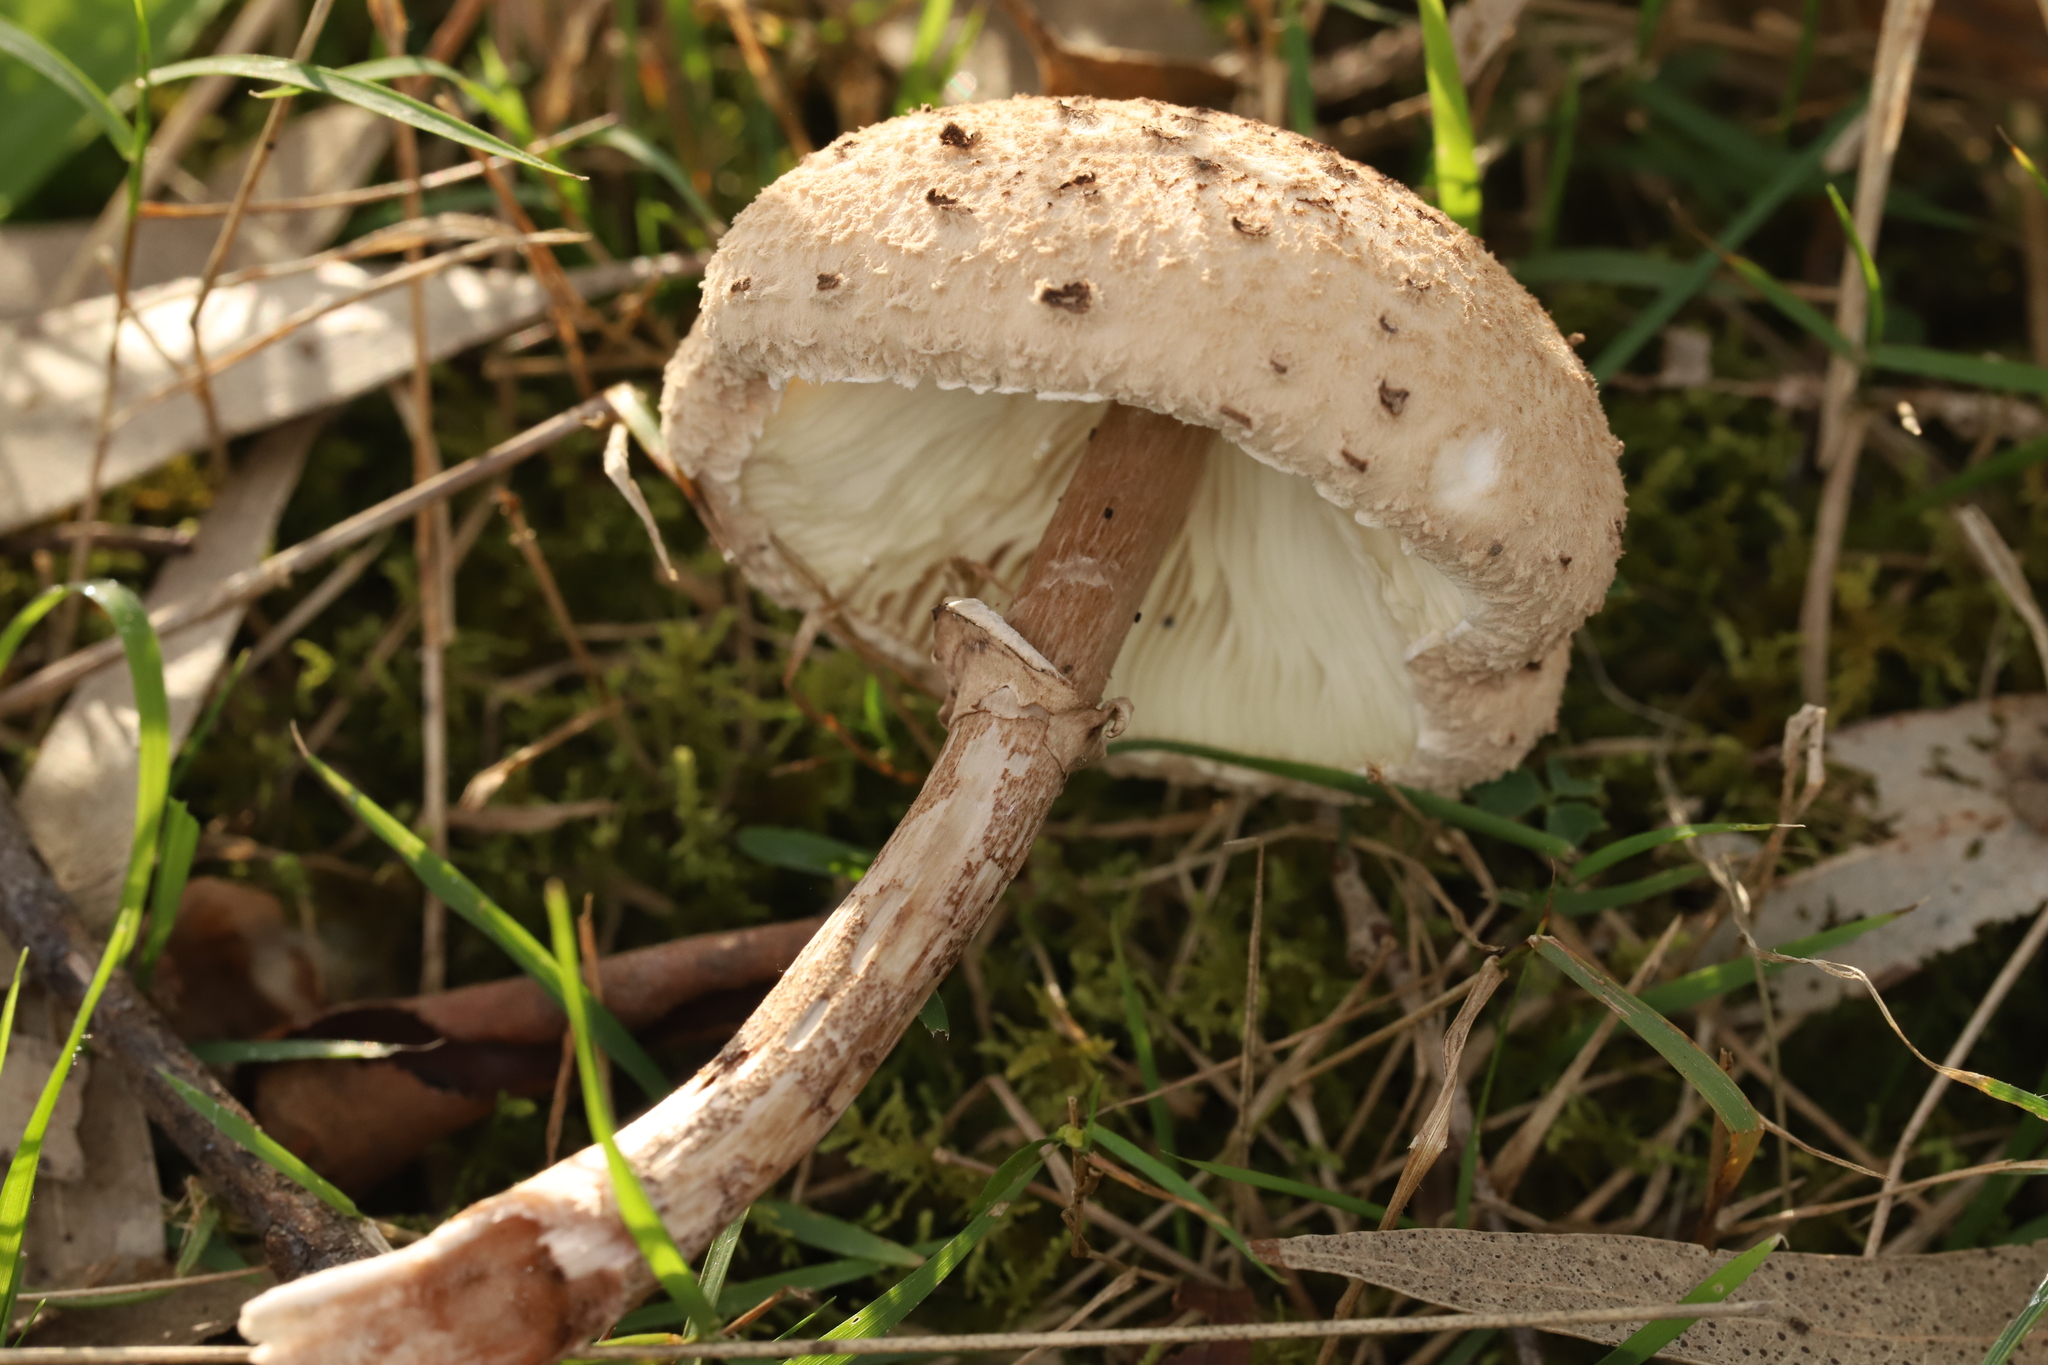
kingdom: Fungi
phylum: Basidiomycota
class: Agaricomycetes
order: Agaricales
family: Agaricaceae
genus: Macrolepiota
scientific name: Macrolepiota clelandii
